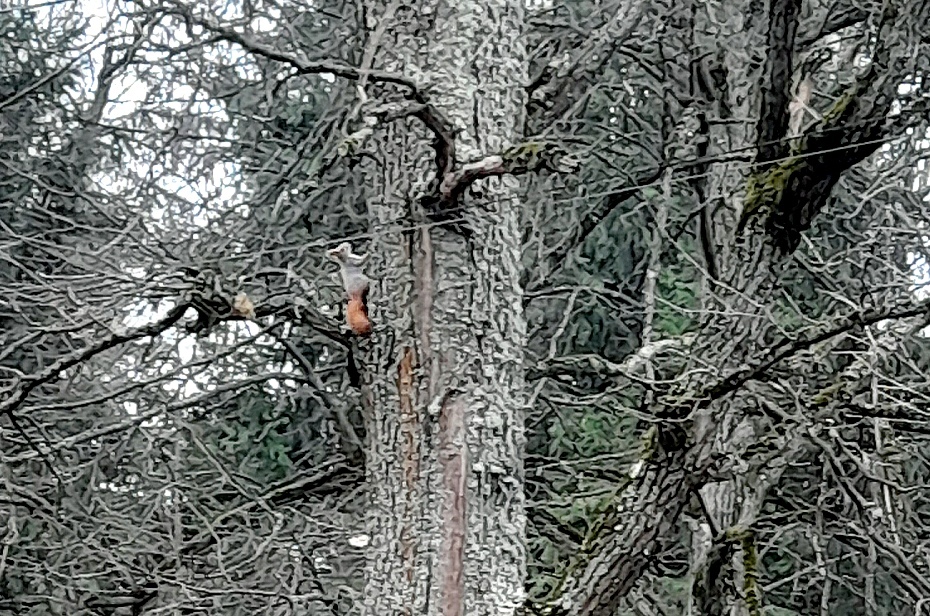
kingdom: Animalia
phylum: Chordata
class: Mammalia
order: Rodentia
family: Sciuridae
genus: Sciurus
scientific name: Sciurus vulgaris
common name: Eurasian red squirrel
